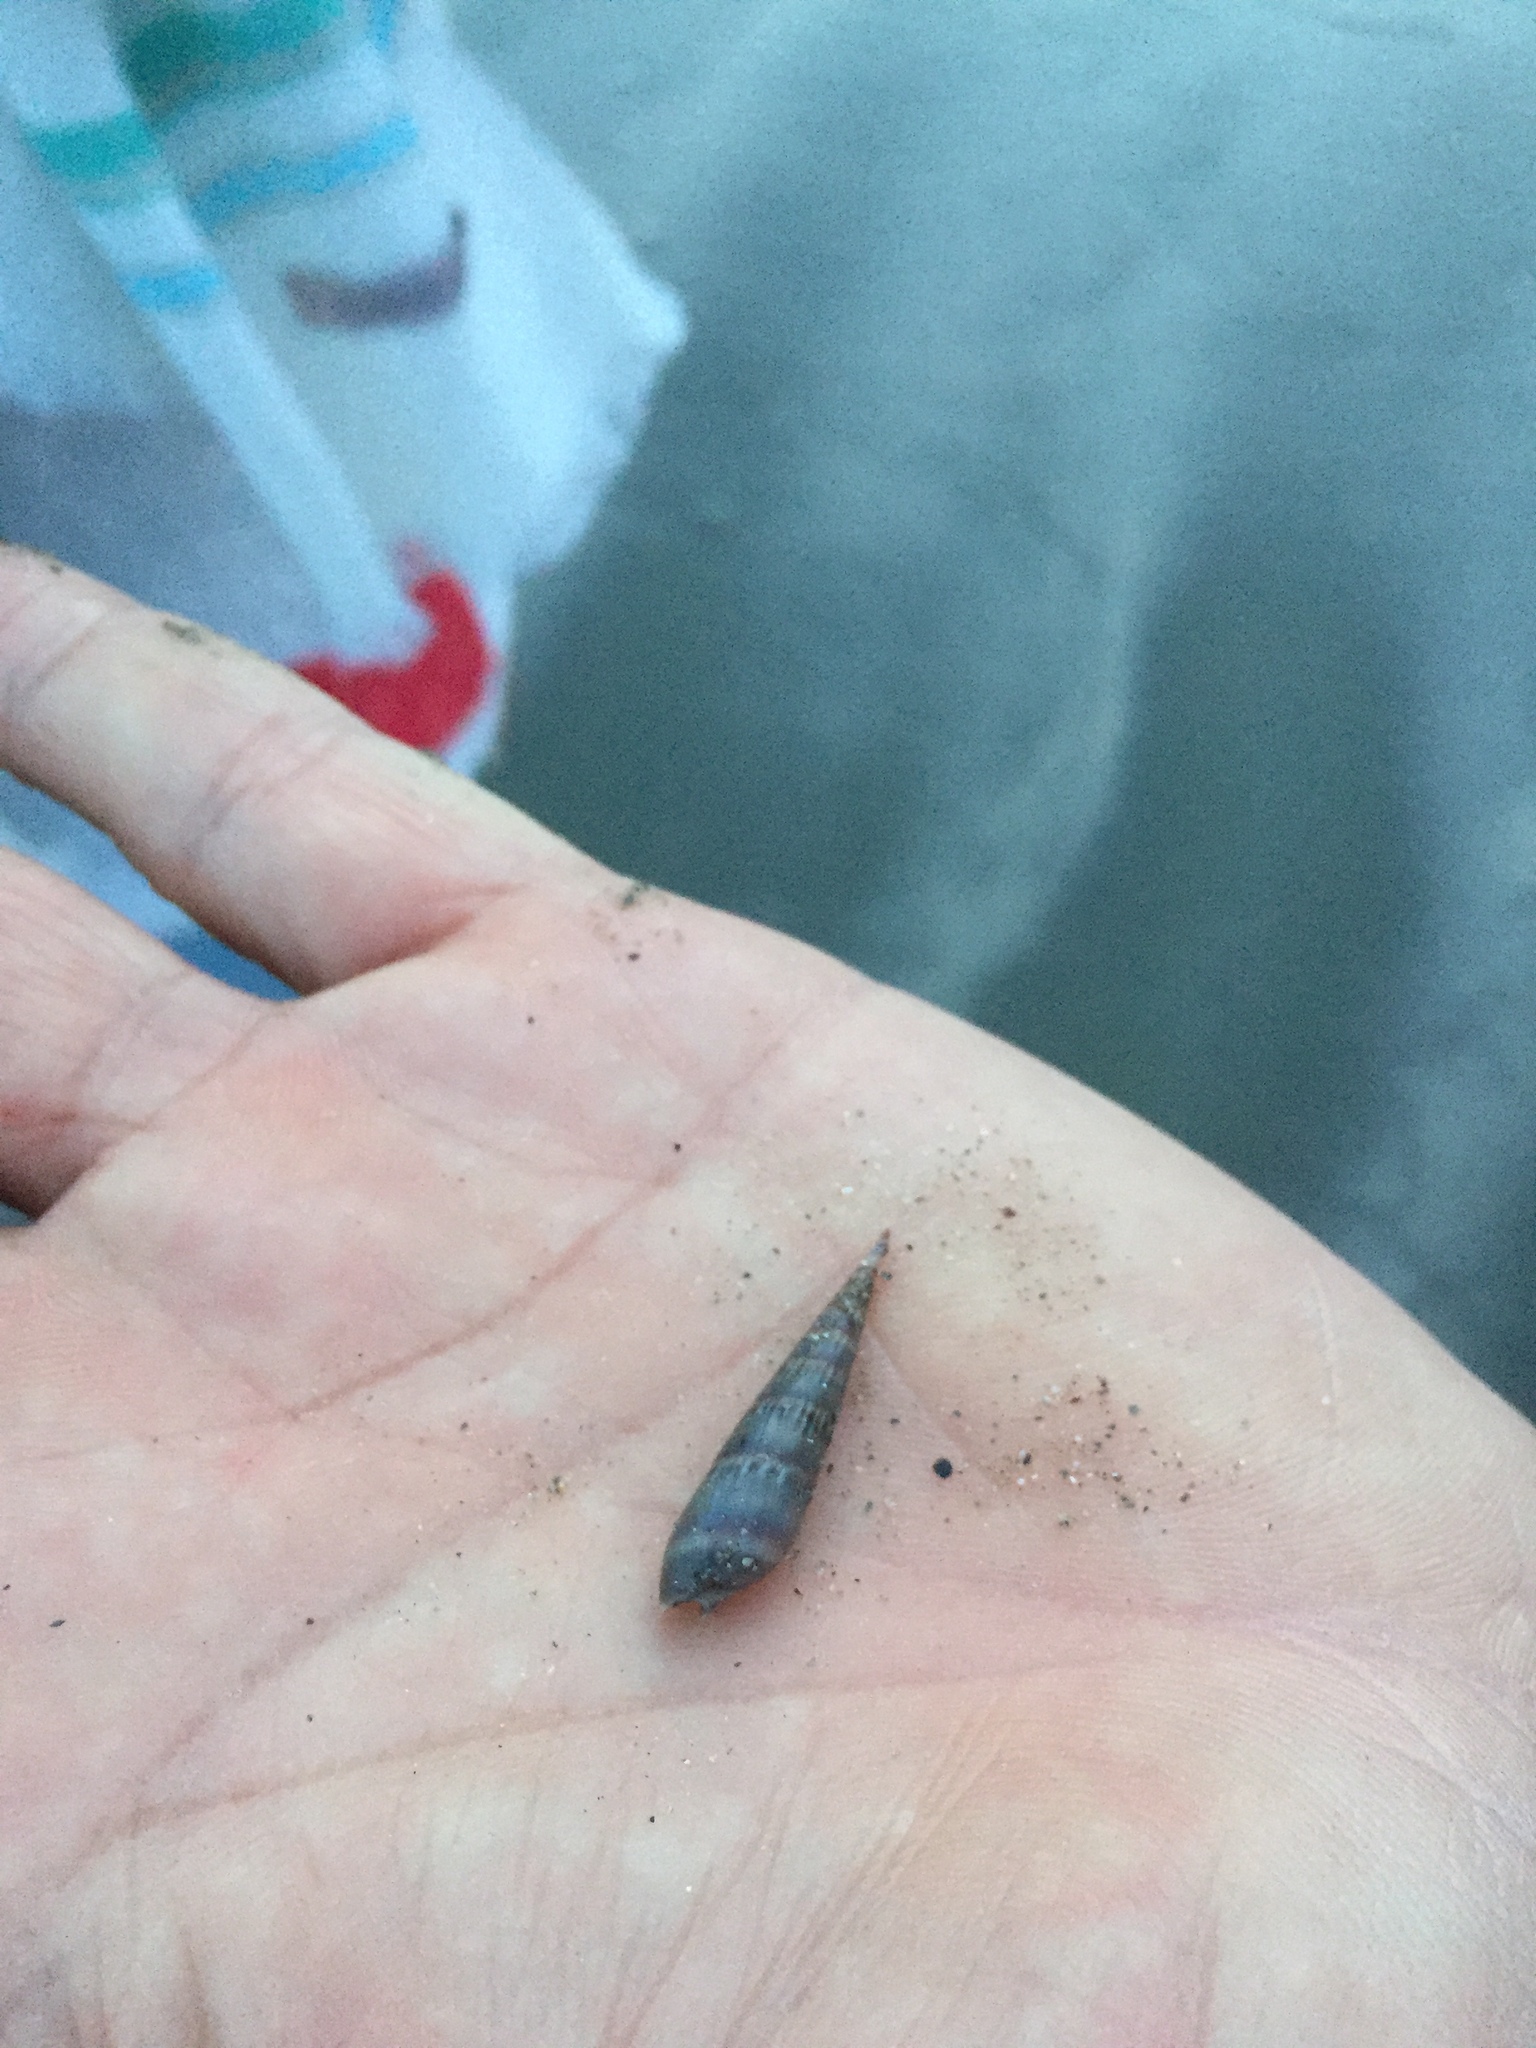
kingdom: Animalia
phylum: Mollusca
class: Gastropoda
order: Neogastropoda
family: Terebridae
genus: Hastula
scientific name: Hastula cinerea
